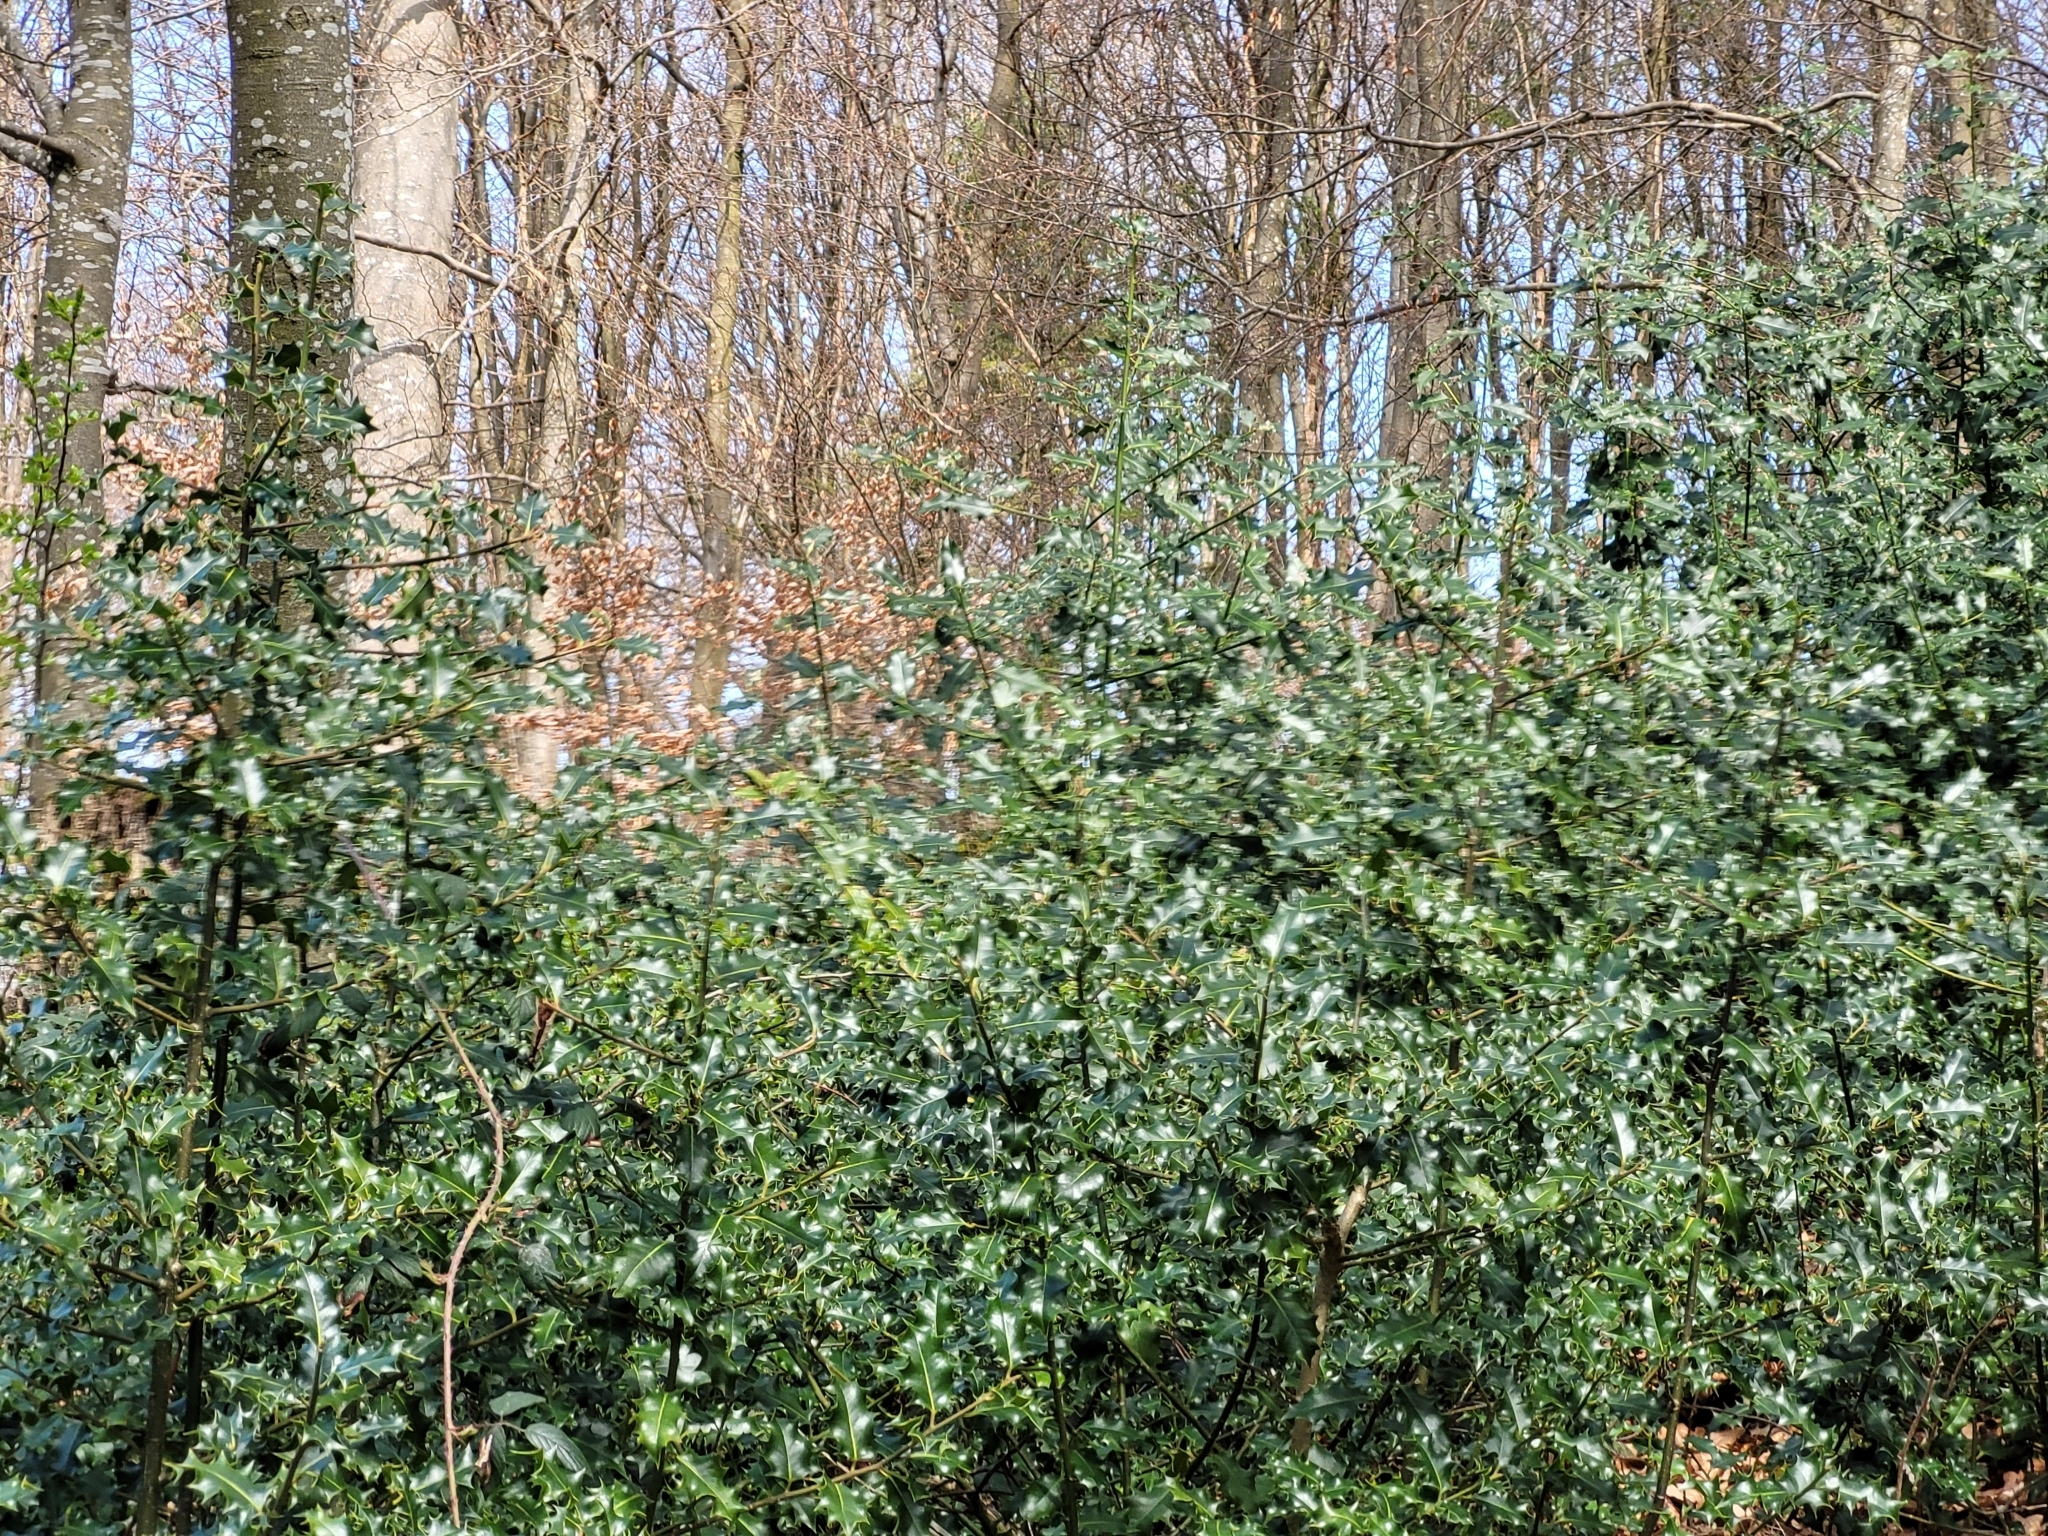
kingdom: Plantae
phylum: Tracheophyta
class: Magnoliopsida
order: Aquifoliales
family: Aquifoliaceae
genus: Ilex
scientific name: Ilex aquifolium
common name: English holly
